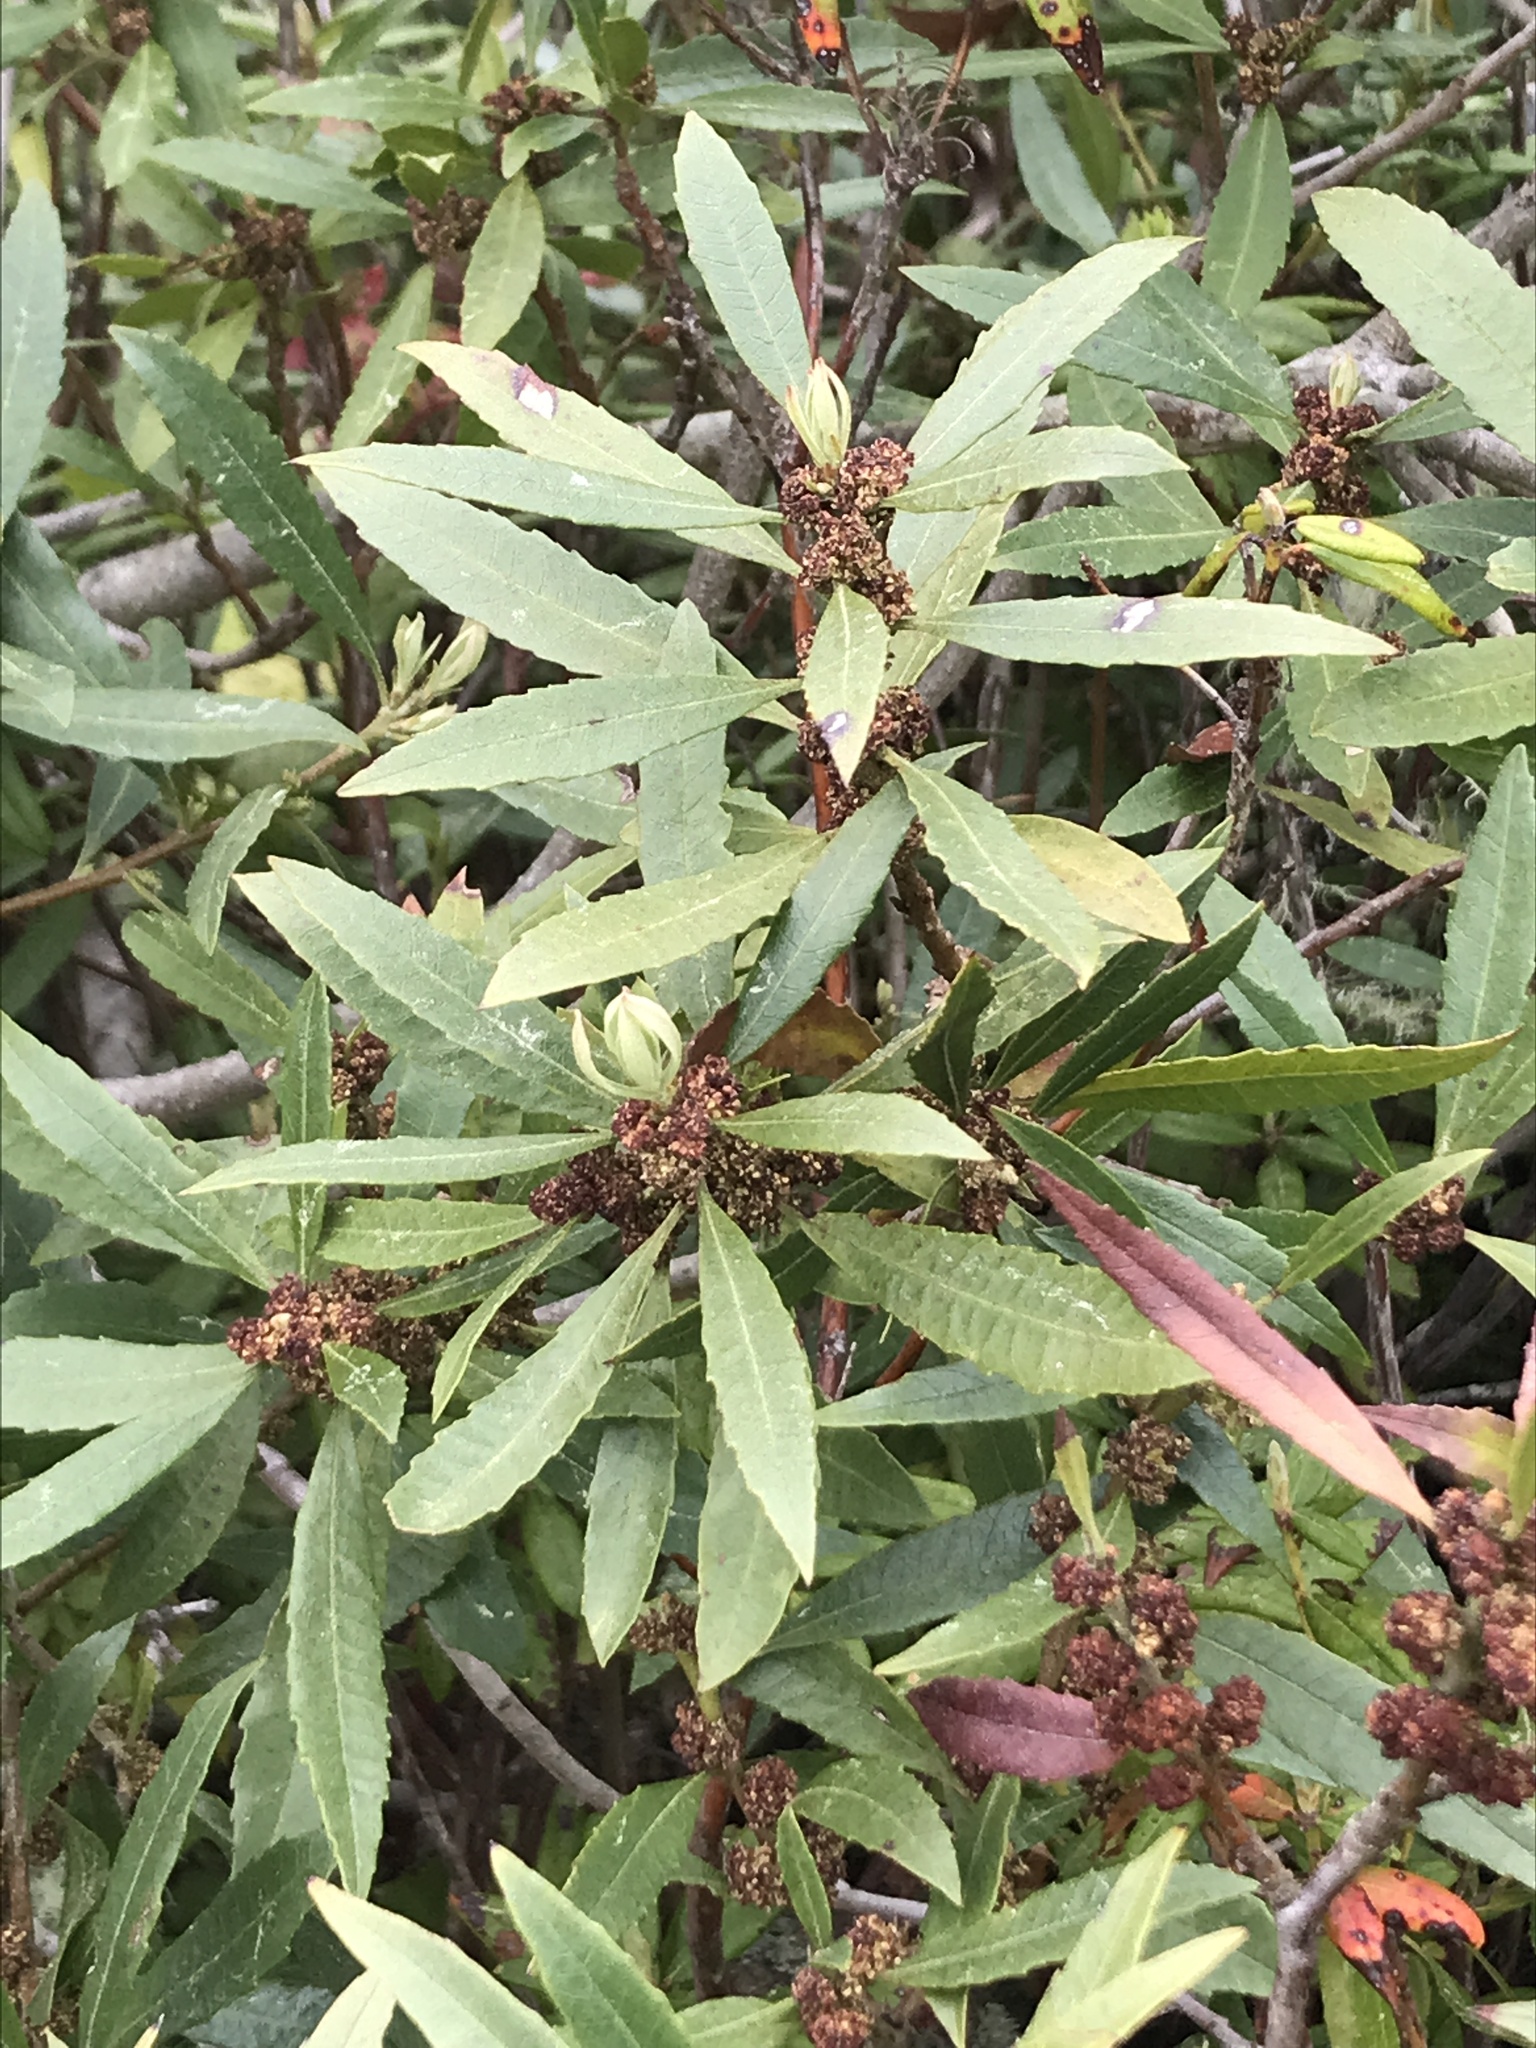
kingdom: Plantae
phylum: Tracheophyta
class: Magnoliopsida
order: Fagales
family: Myricaceae
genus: Morella
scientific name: Morella californica
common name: California wax-myrtle
